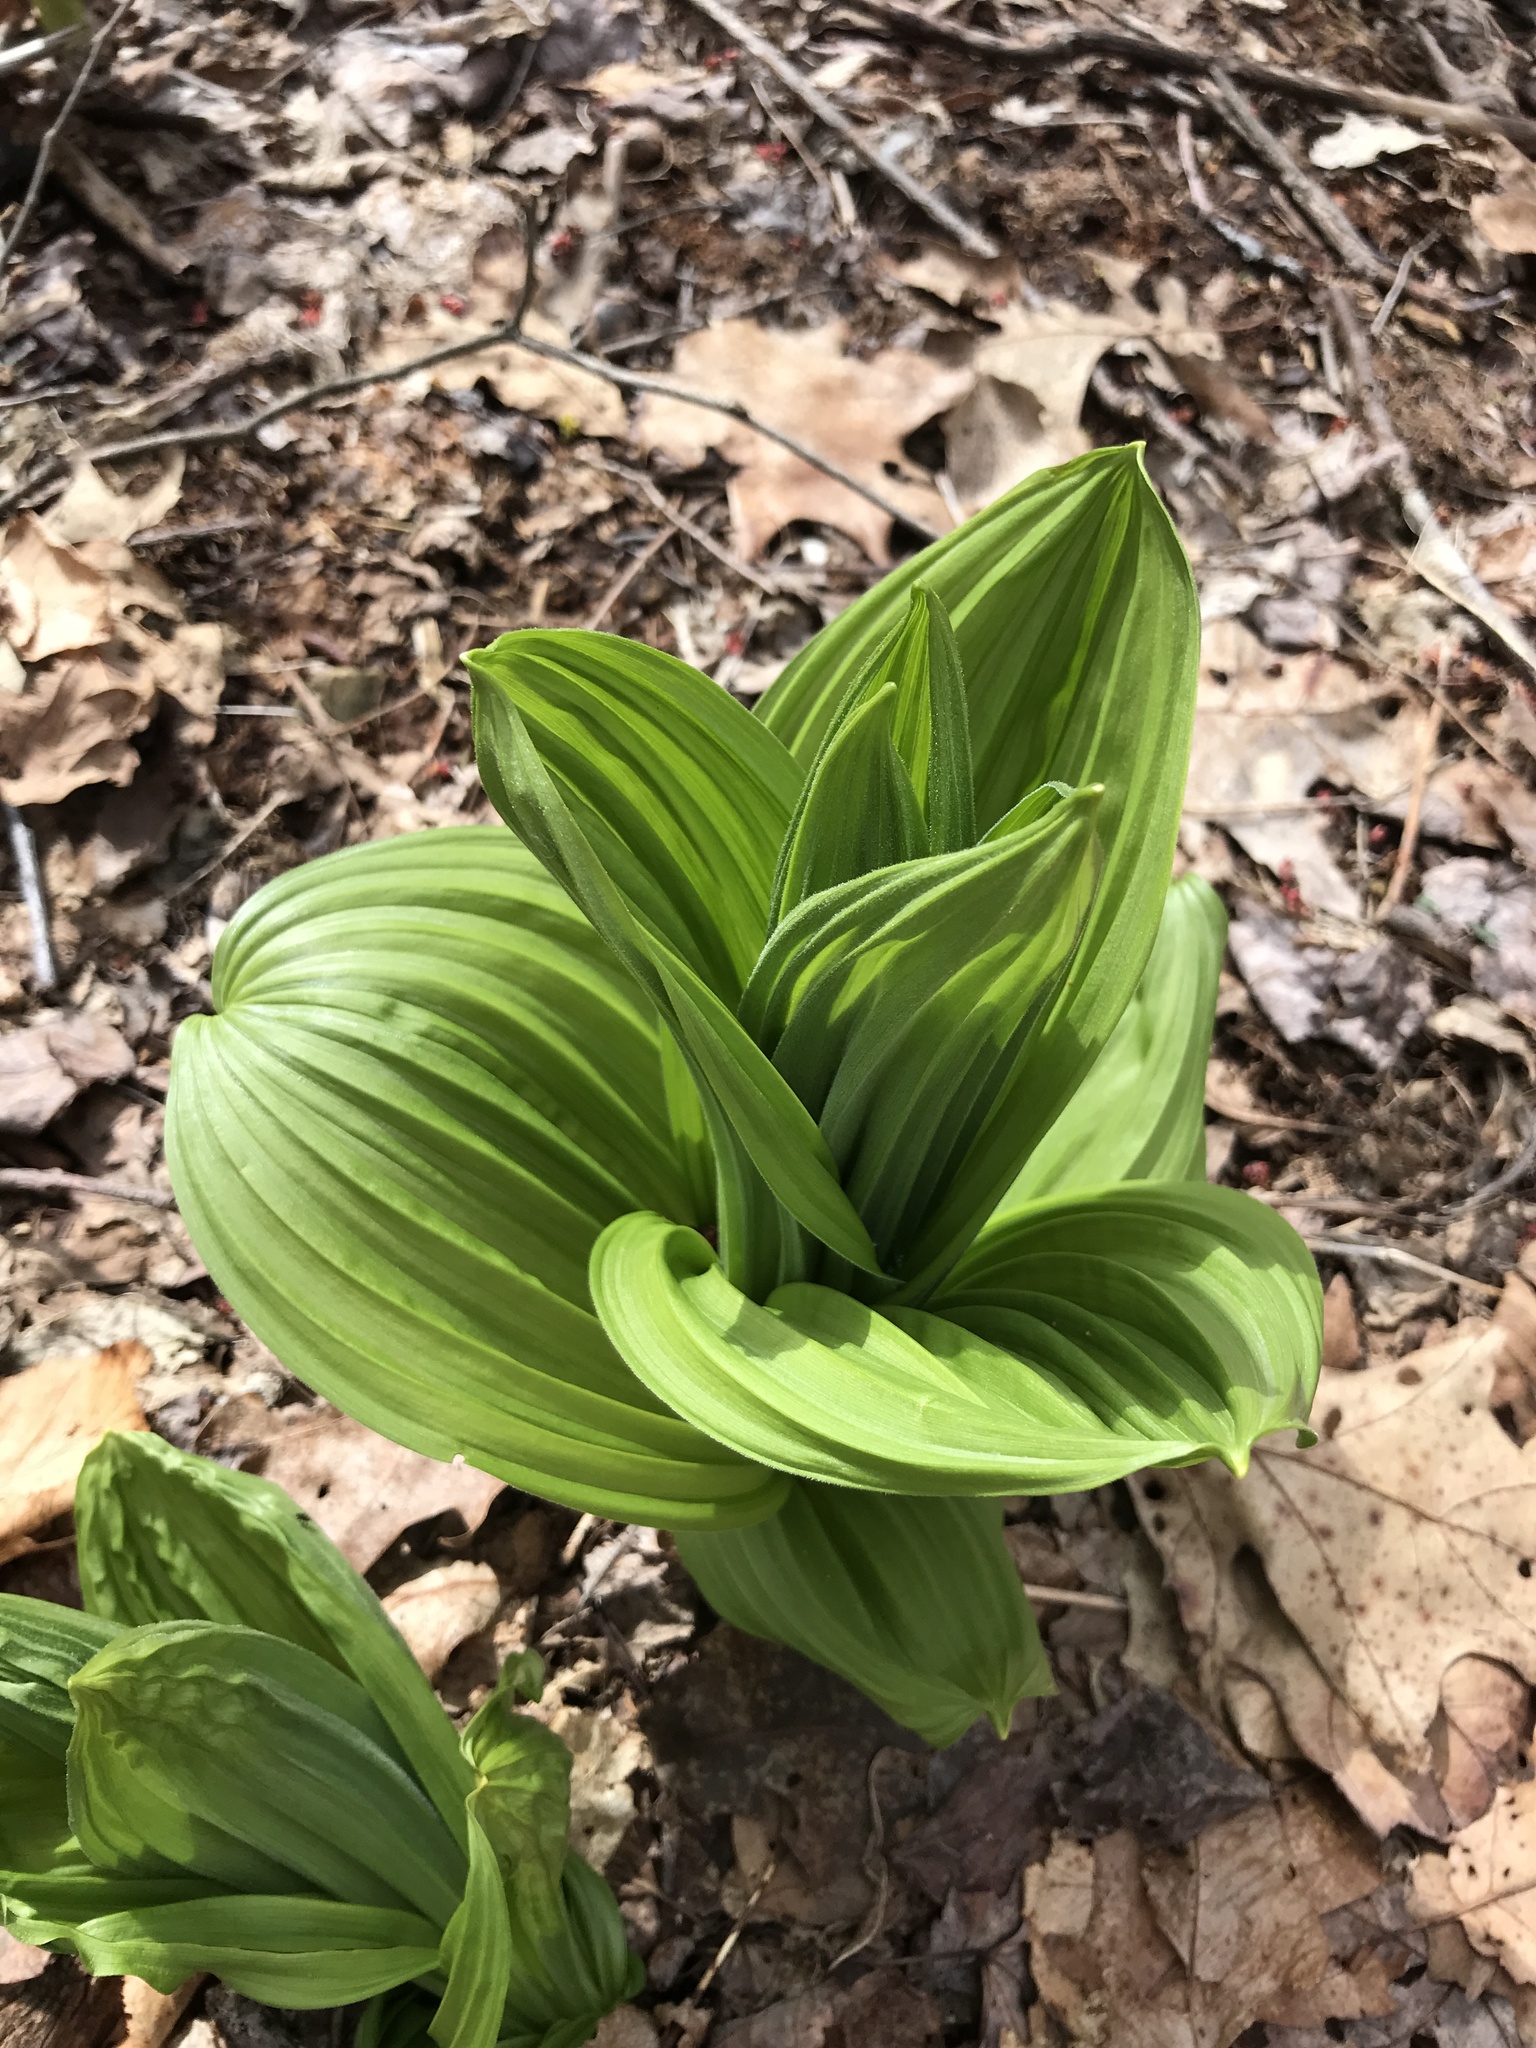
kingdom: Plantae
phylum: Tracheophyta
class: Liliopsida
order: Liliales
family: Melanthiaceae
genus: Veratrum
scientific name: Veratrum viride
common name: American false hellebore
